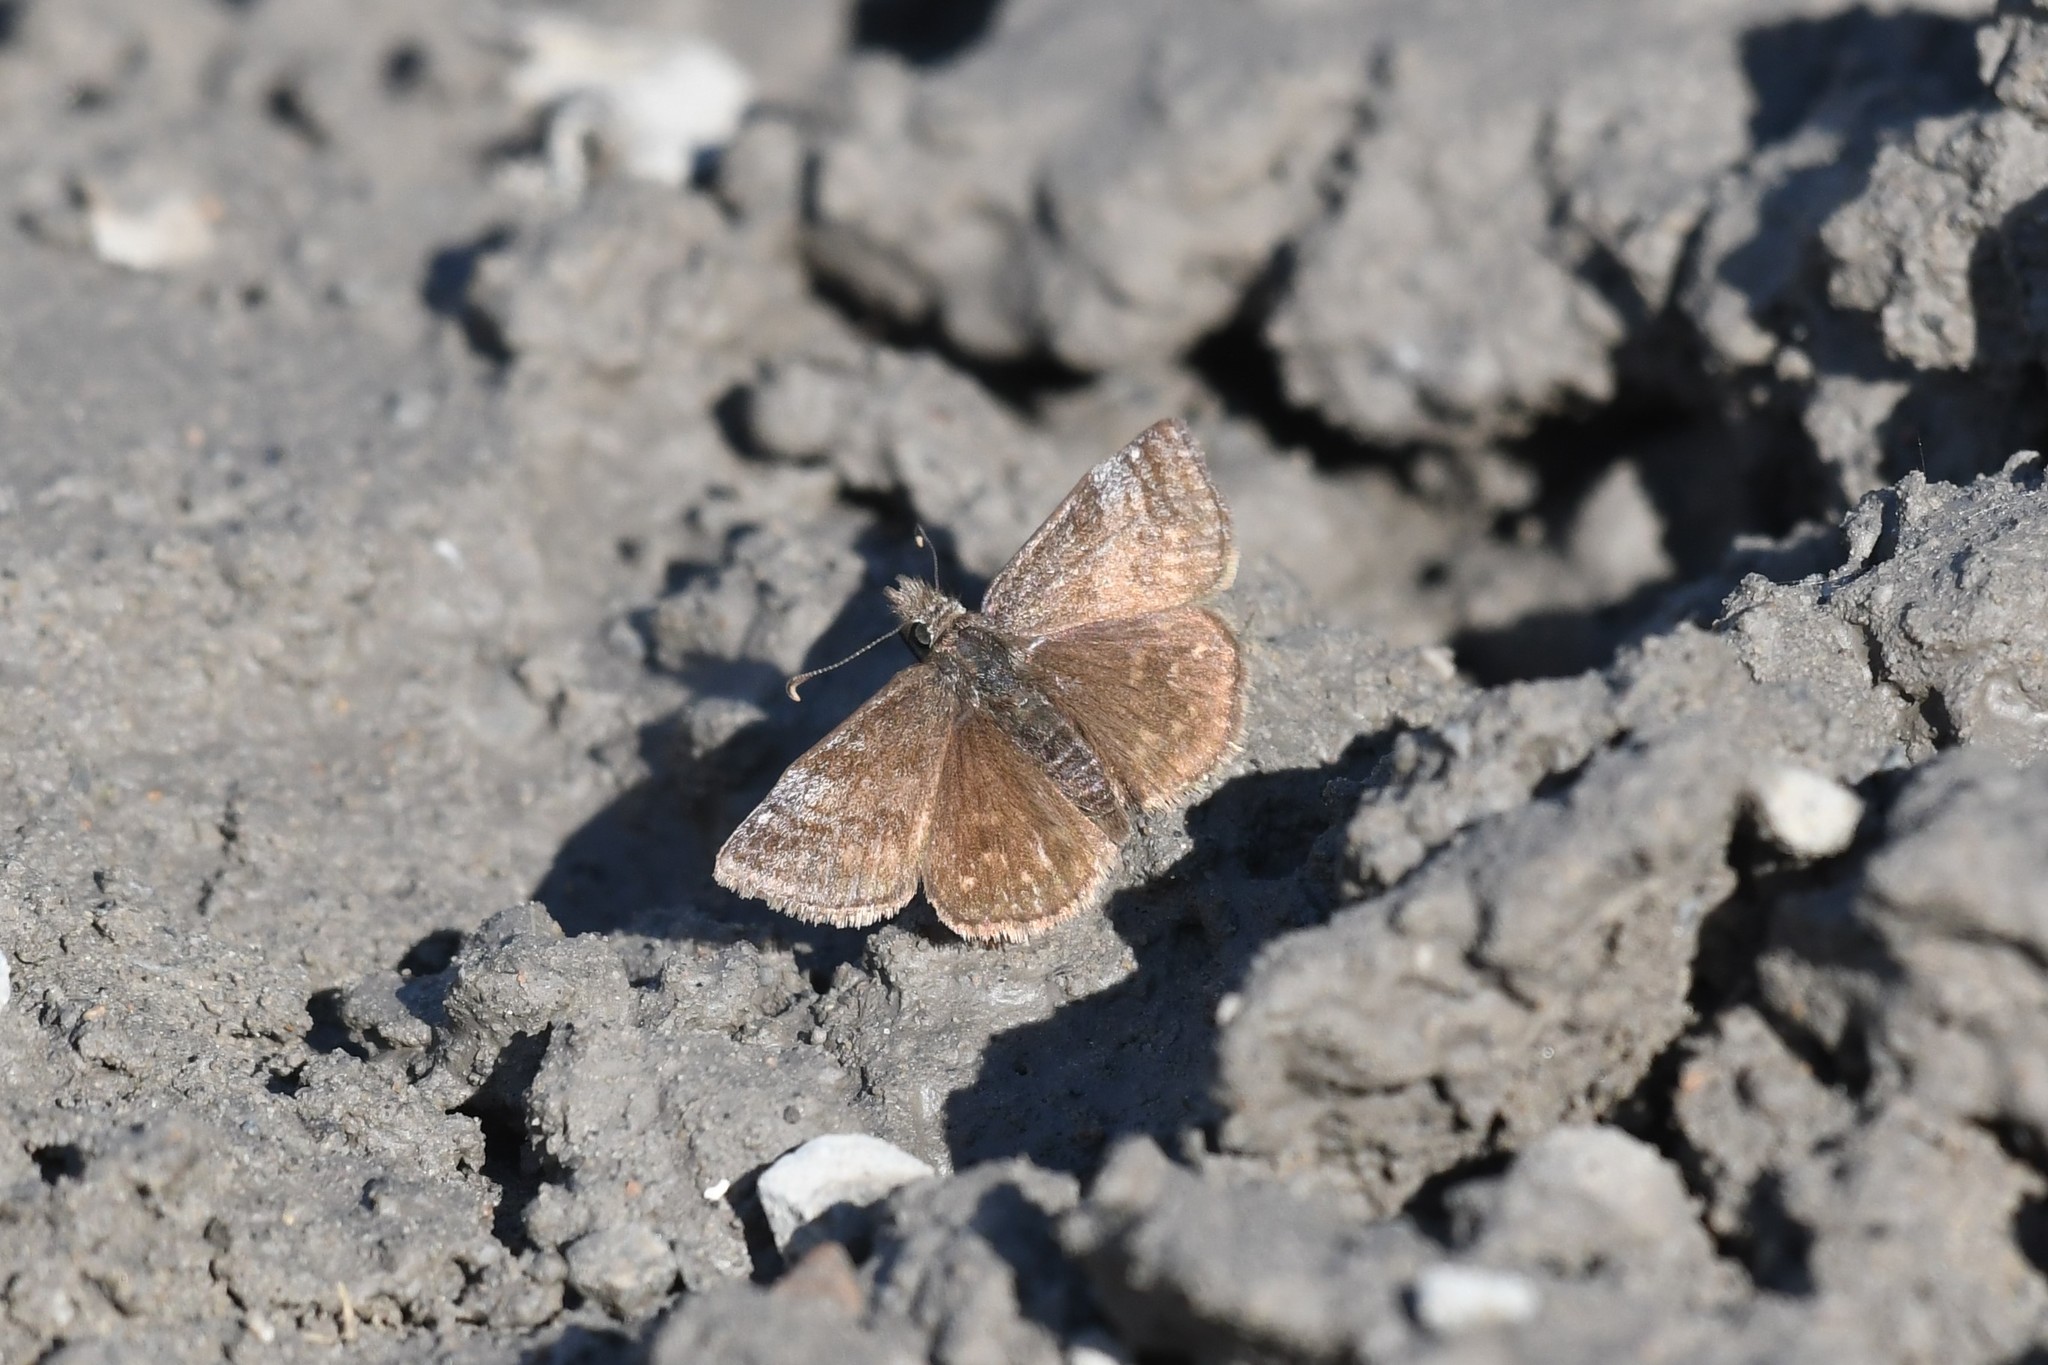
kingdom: Animalia
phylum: Arthropoda
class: Insecta
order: Lepidoptera
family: Hesperiidae
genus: Erynnis
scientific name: Erynnis icelus
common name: Dreamy duskywing
